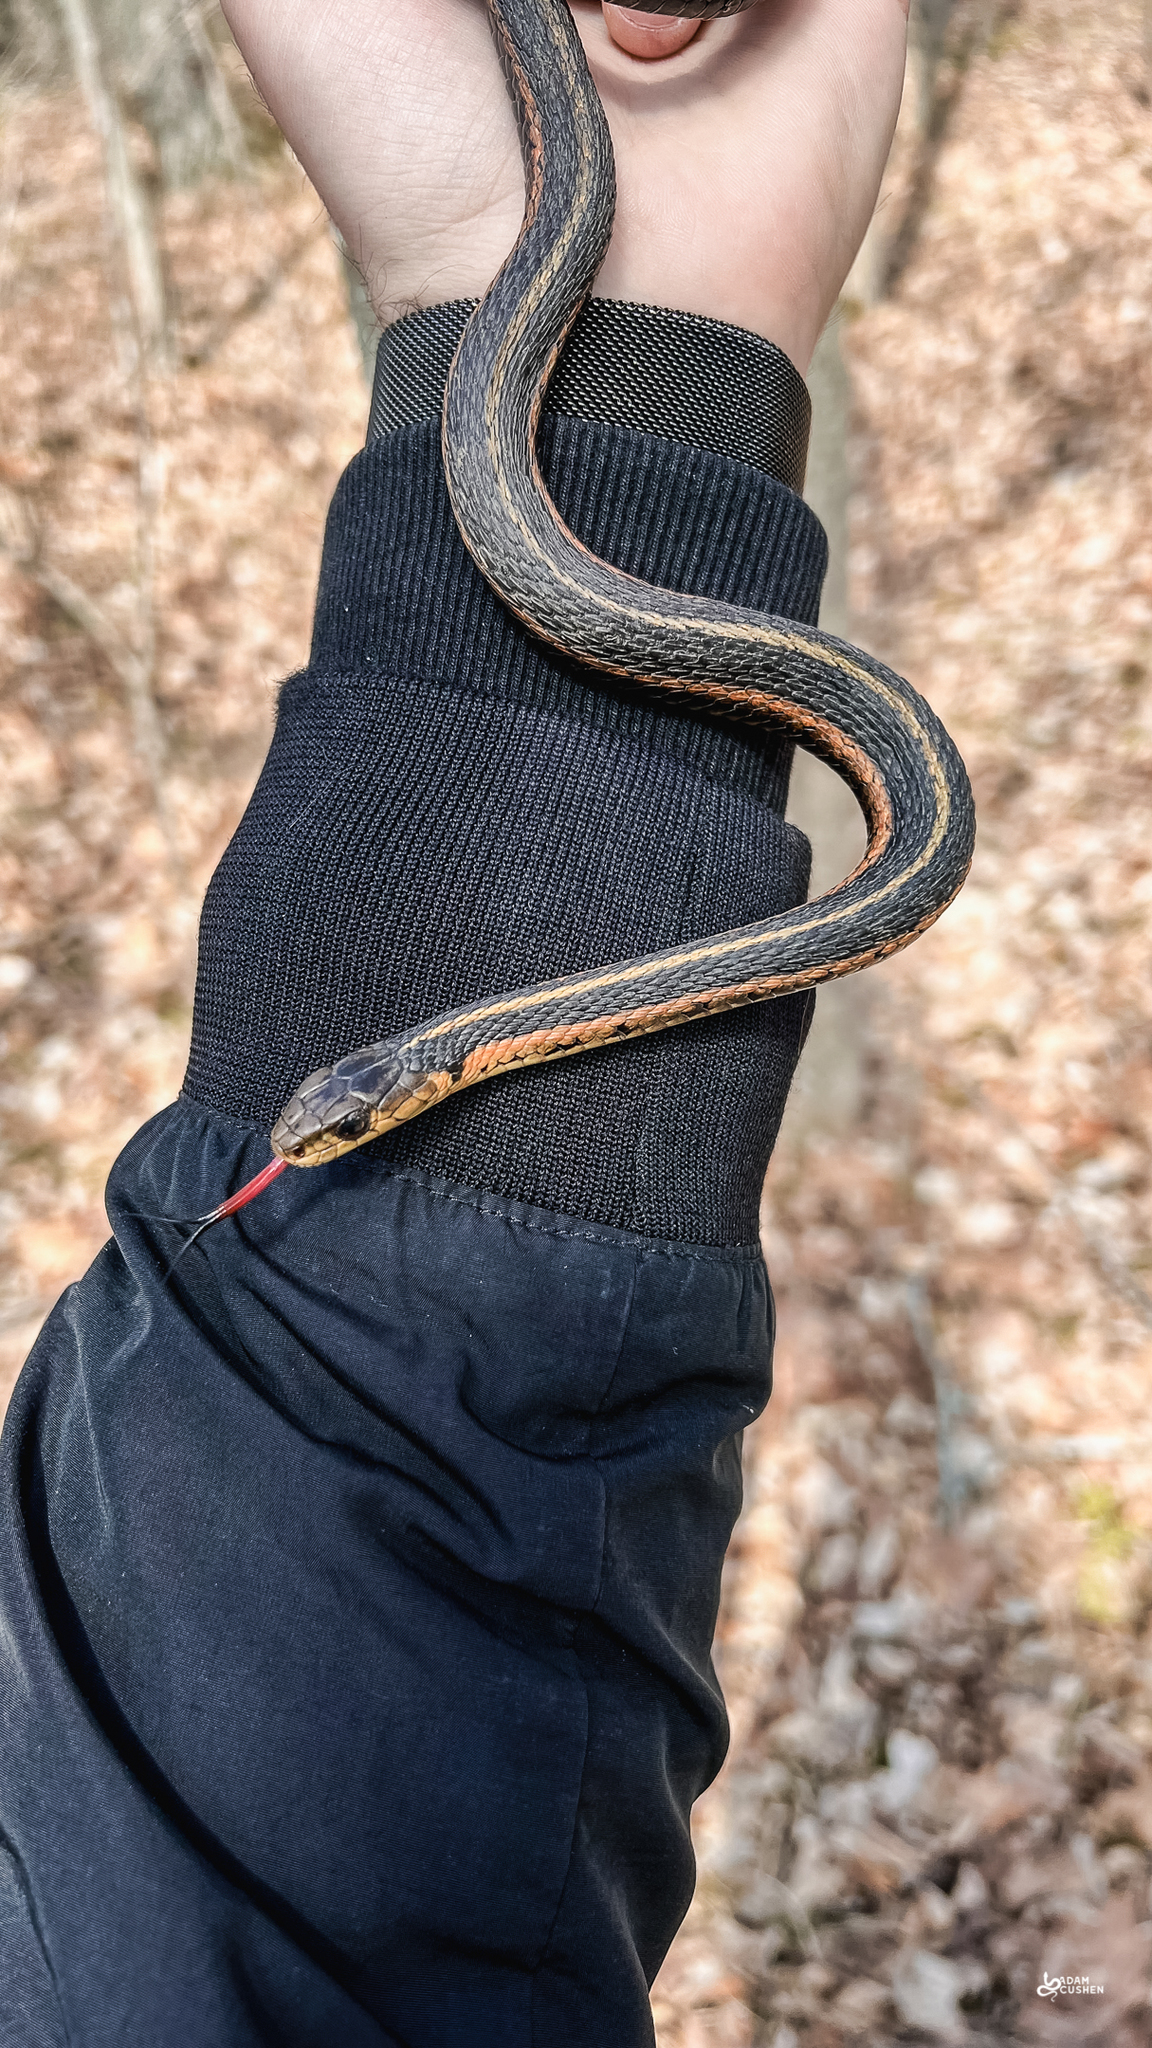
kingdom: Animalia
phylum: Chordata
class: Squamata
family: Colubridae
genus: Thamnophis
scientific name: Thamnophis sirtalis
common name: Common garter snake
